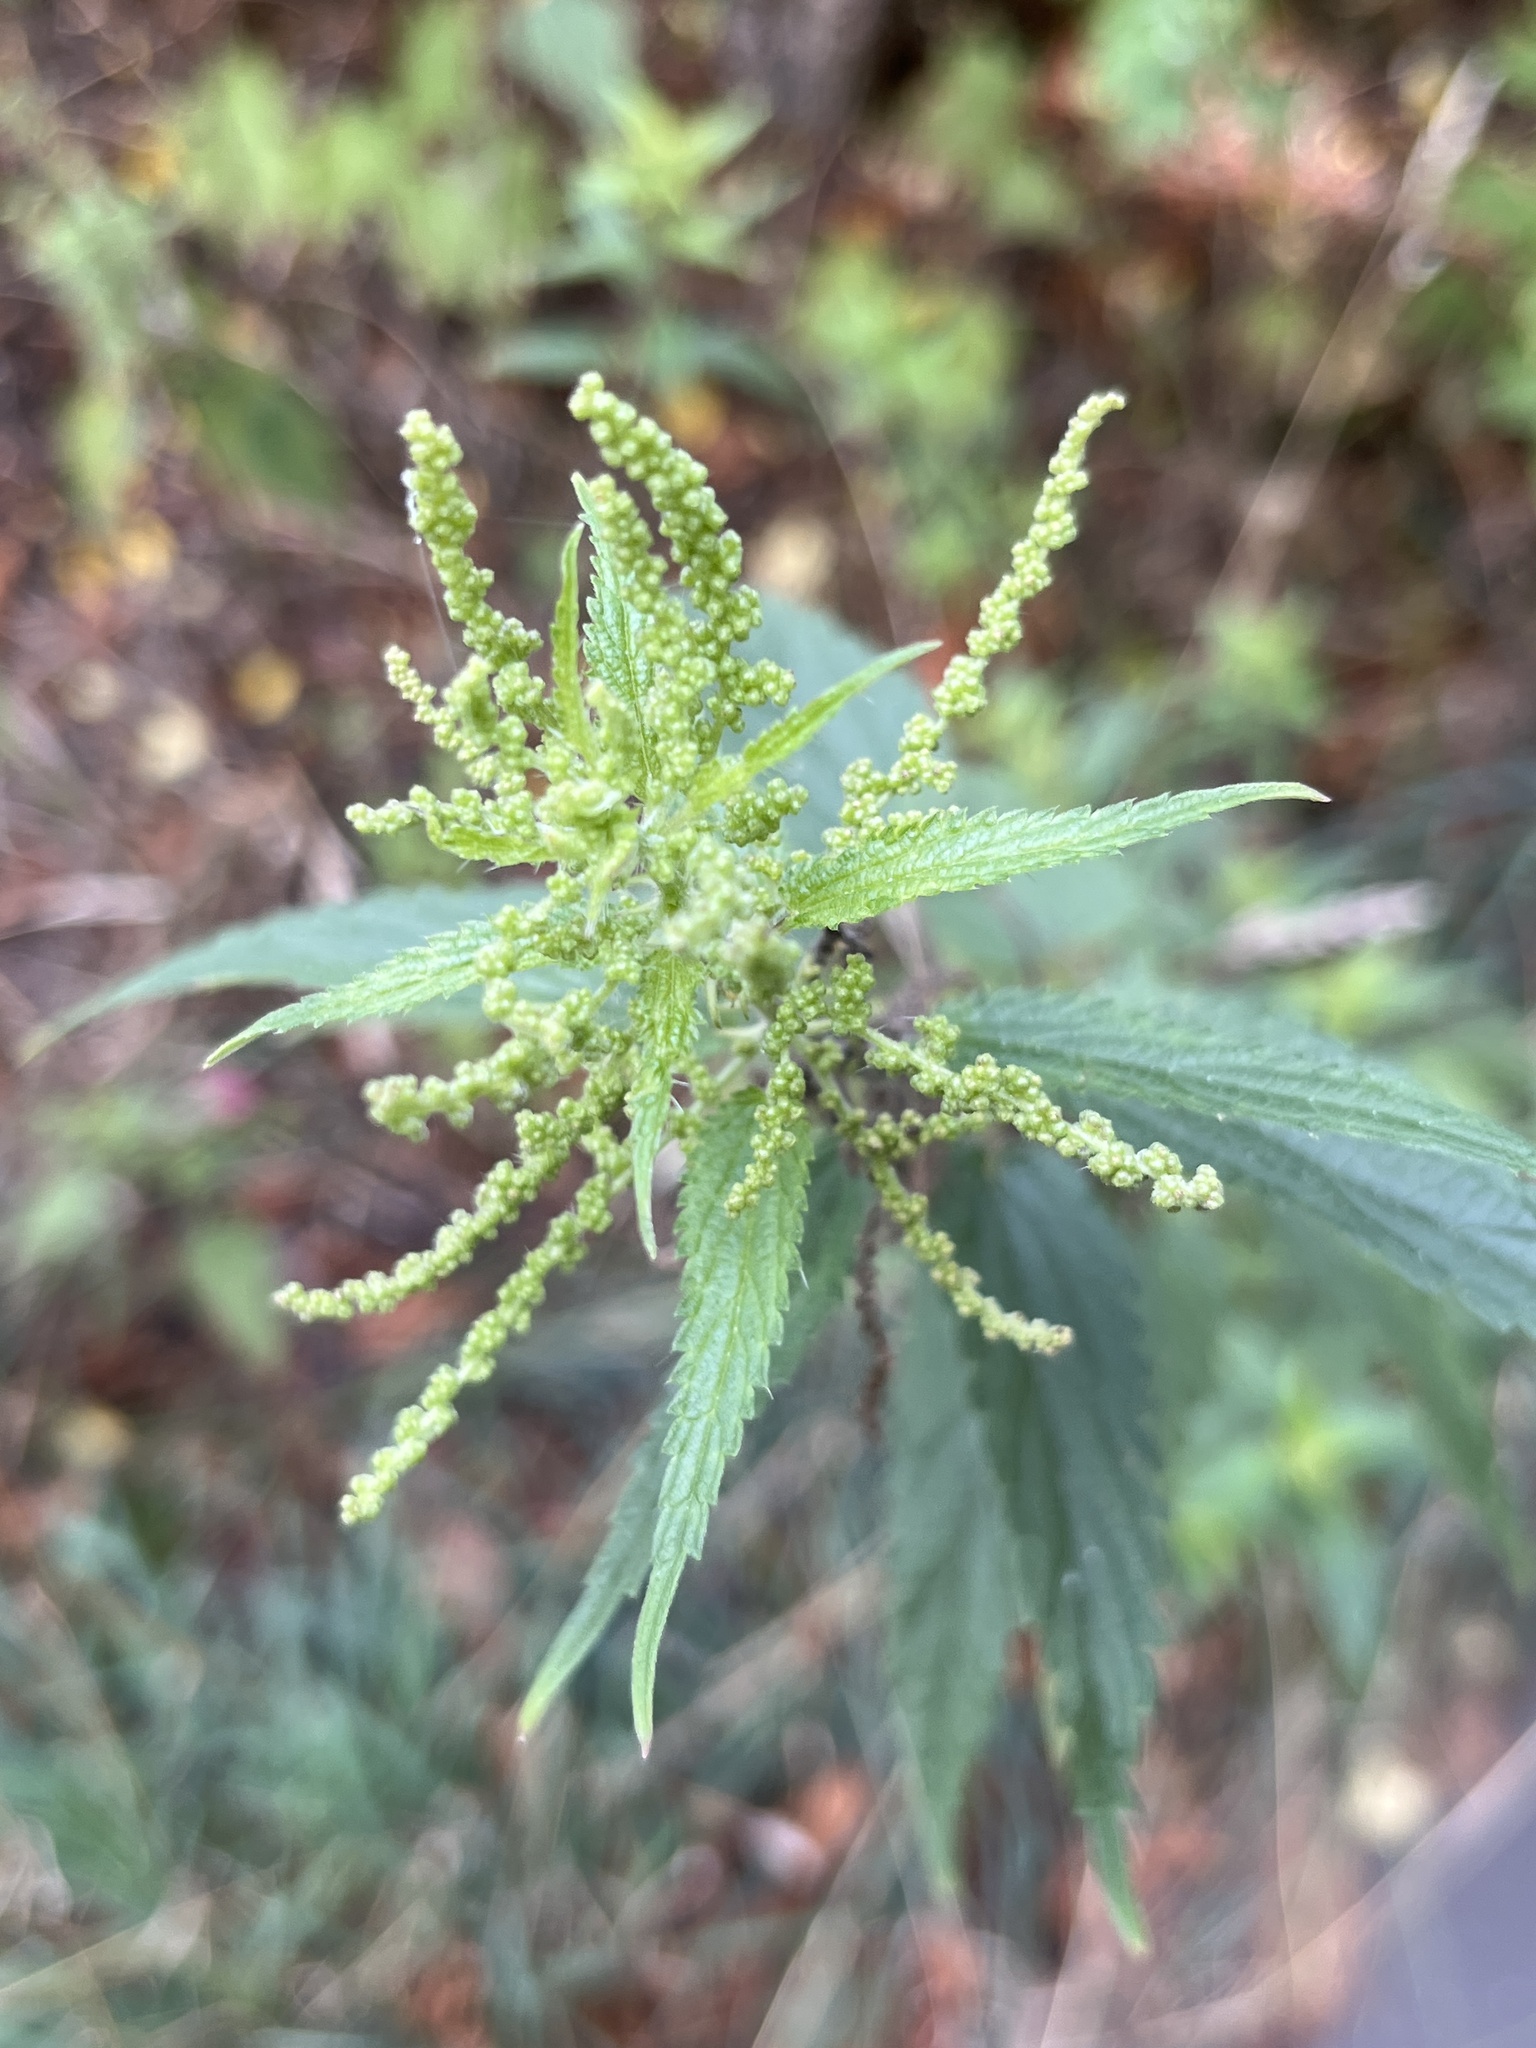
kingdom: Plantae
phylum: Tracheophyta
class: Magnoliopsida
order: Rosales
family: Urticaceae
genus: Urtica
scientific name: Urtica dioica
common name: Common nettle
